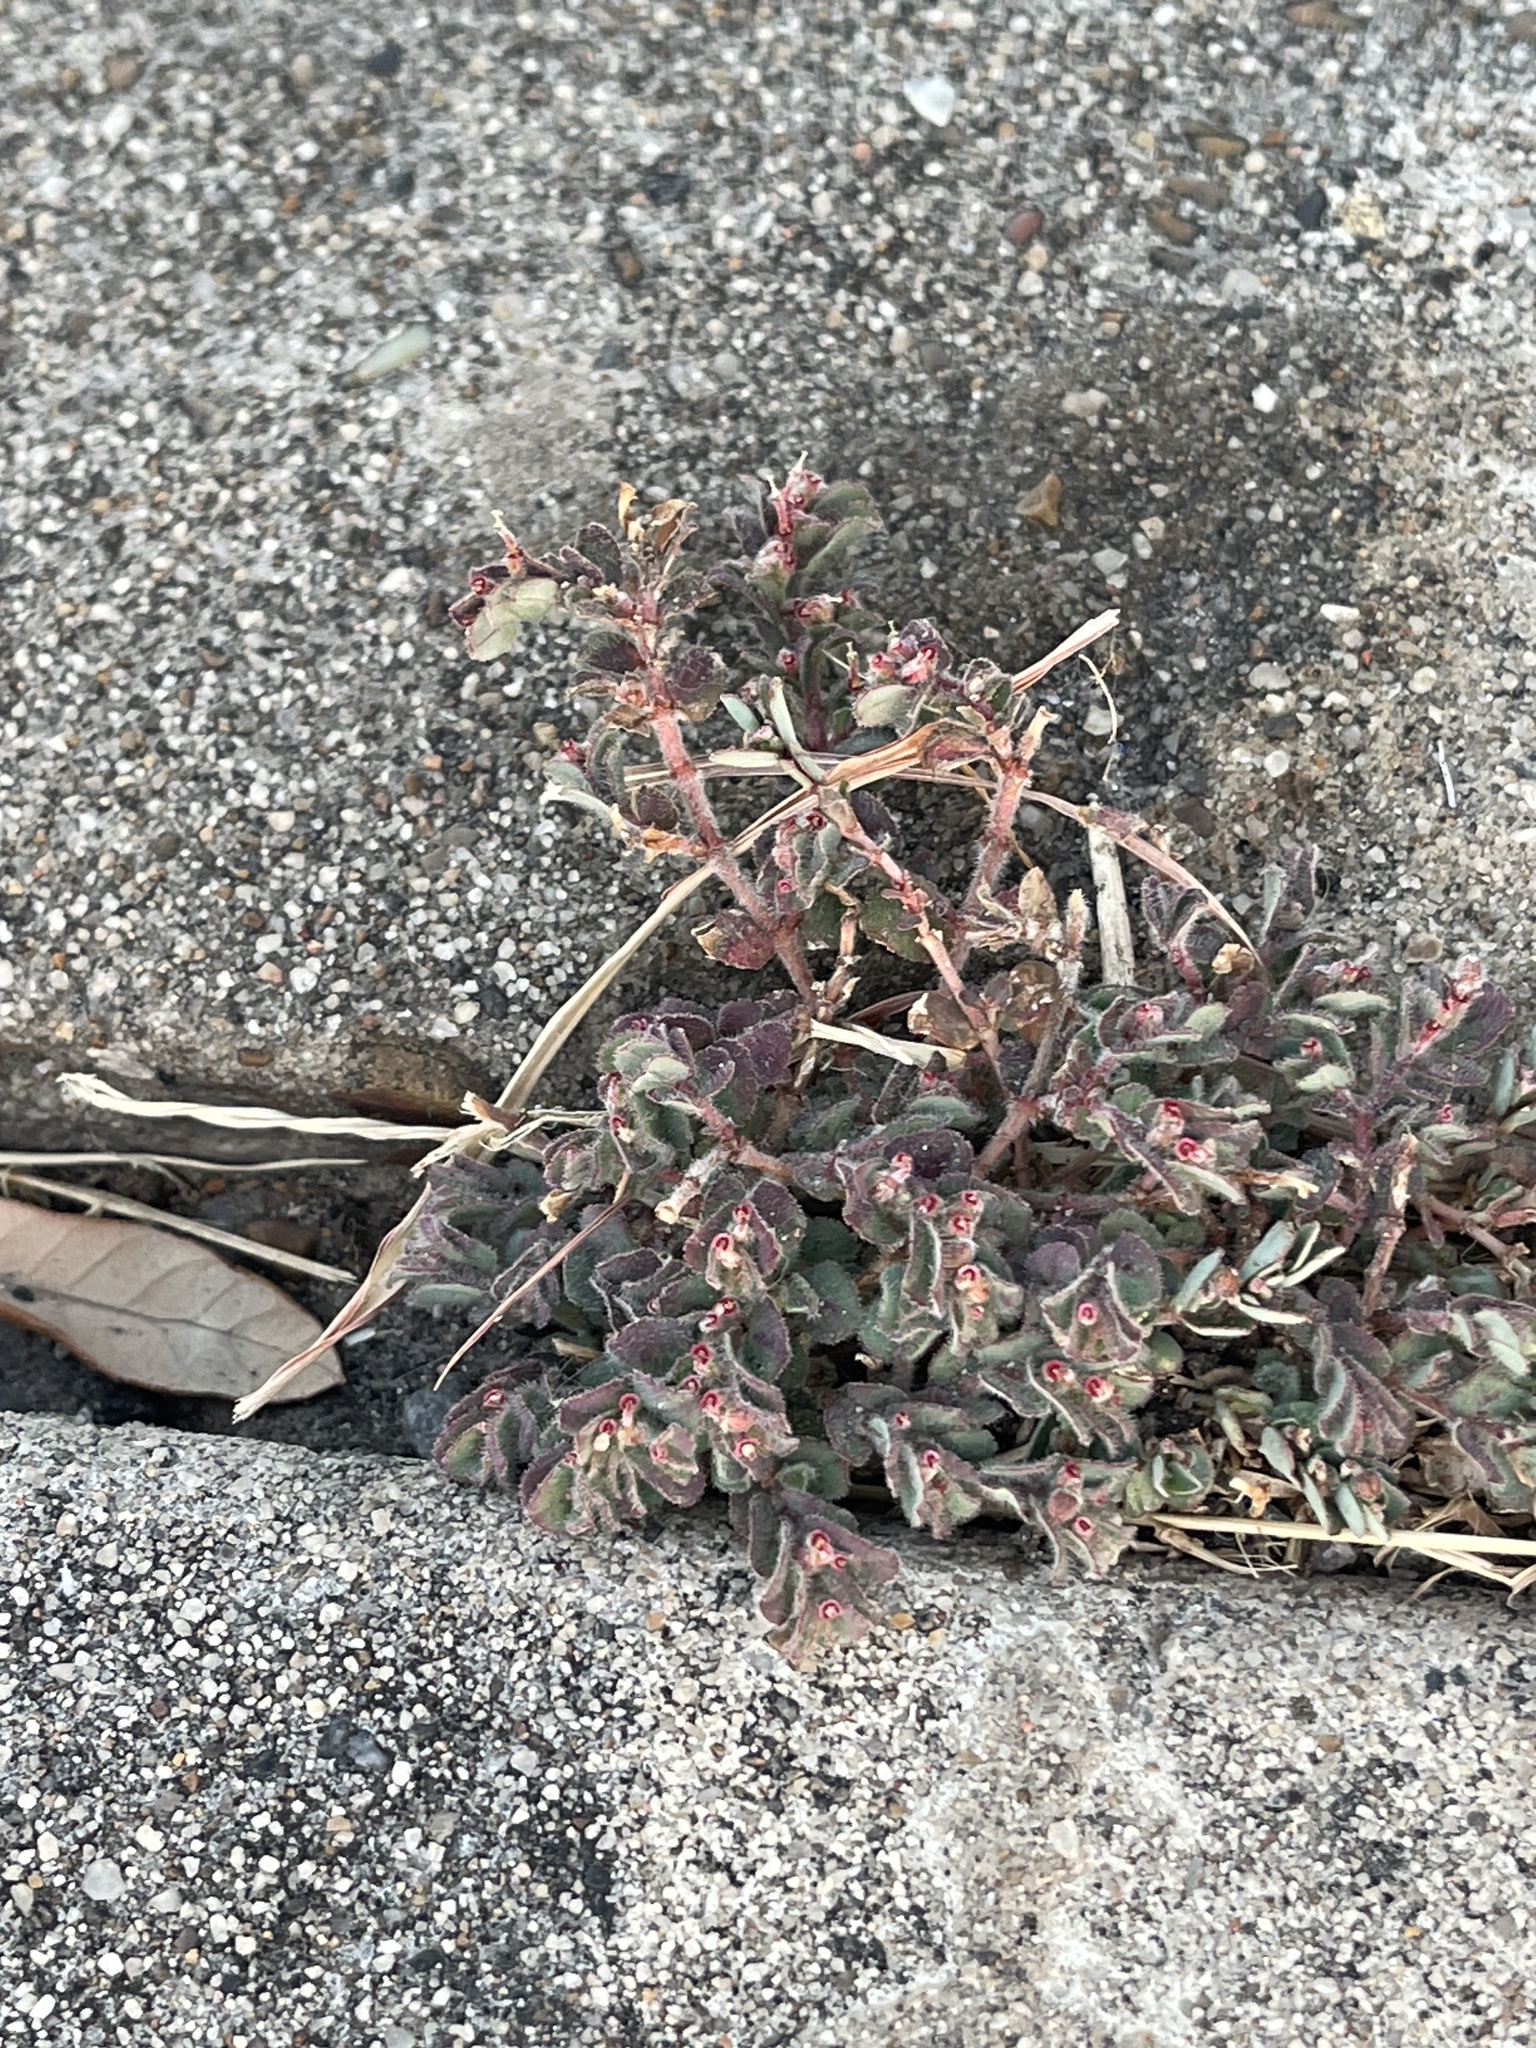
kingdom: Plantae
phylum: Tracheophyta
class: Magnoliopsida
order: Malpighiales
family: Euphorbiaceae
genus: Euphorbia
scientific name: Euphorbia velleriflora
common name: Caliche sandmat
